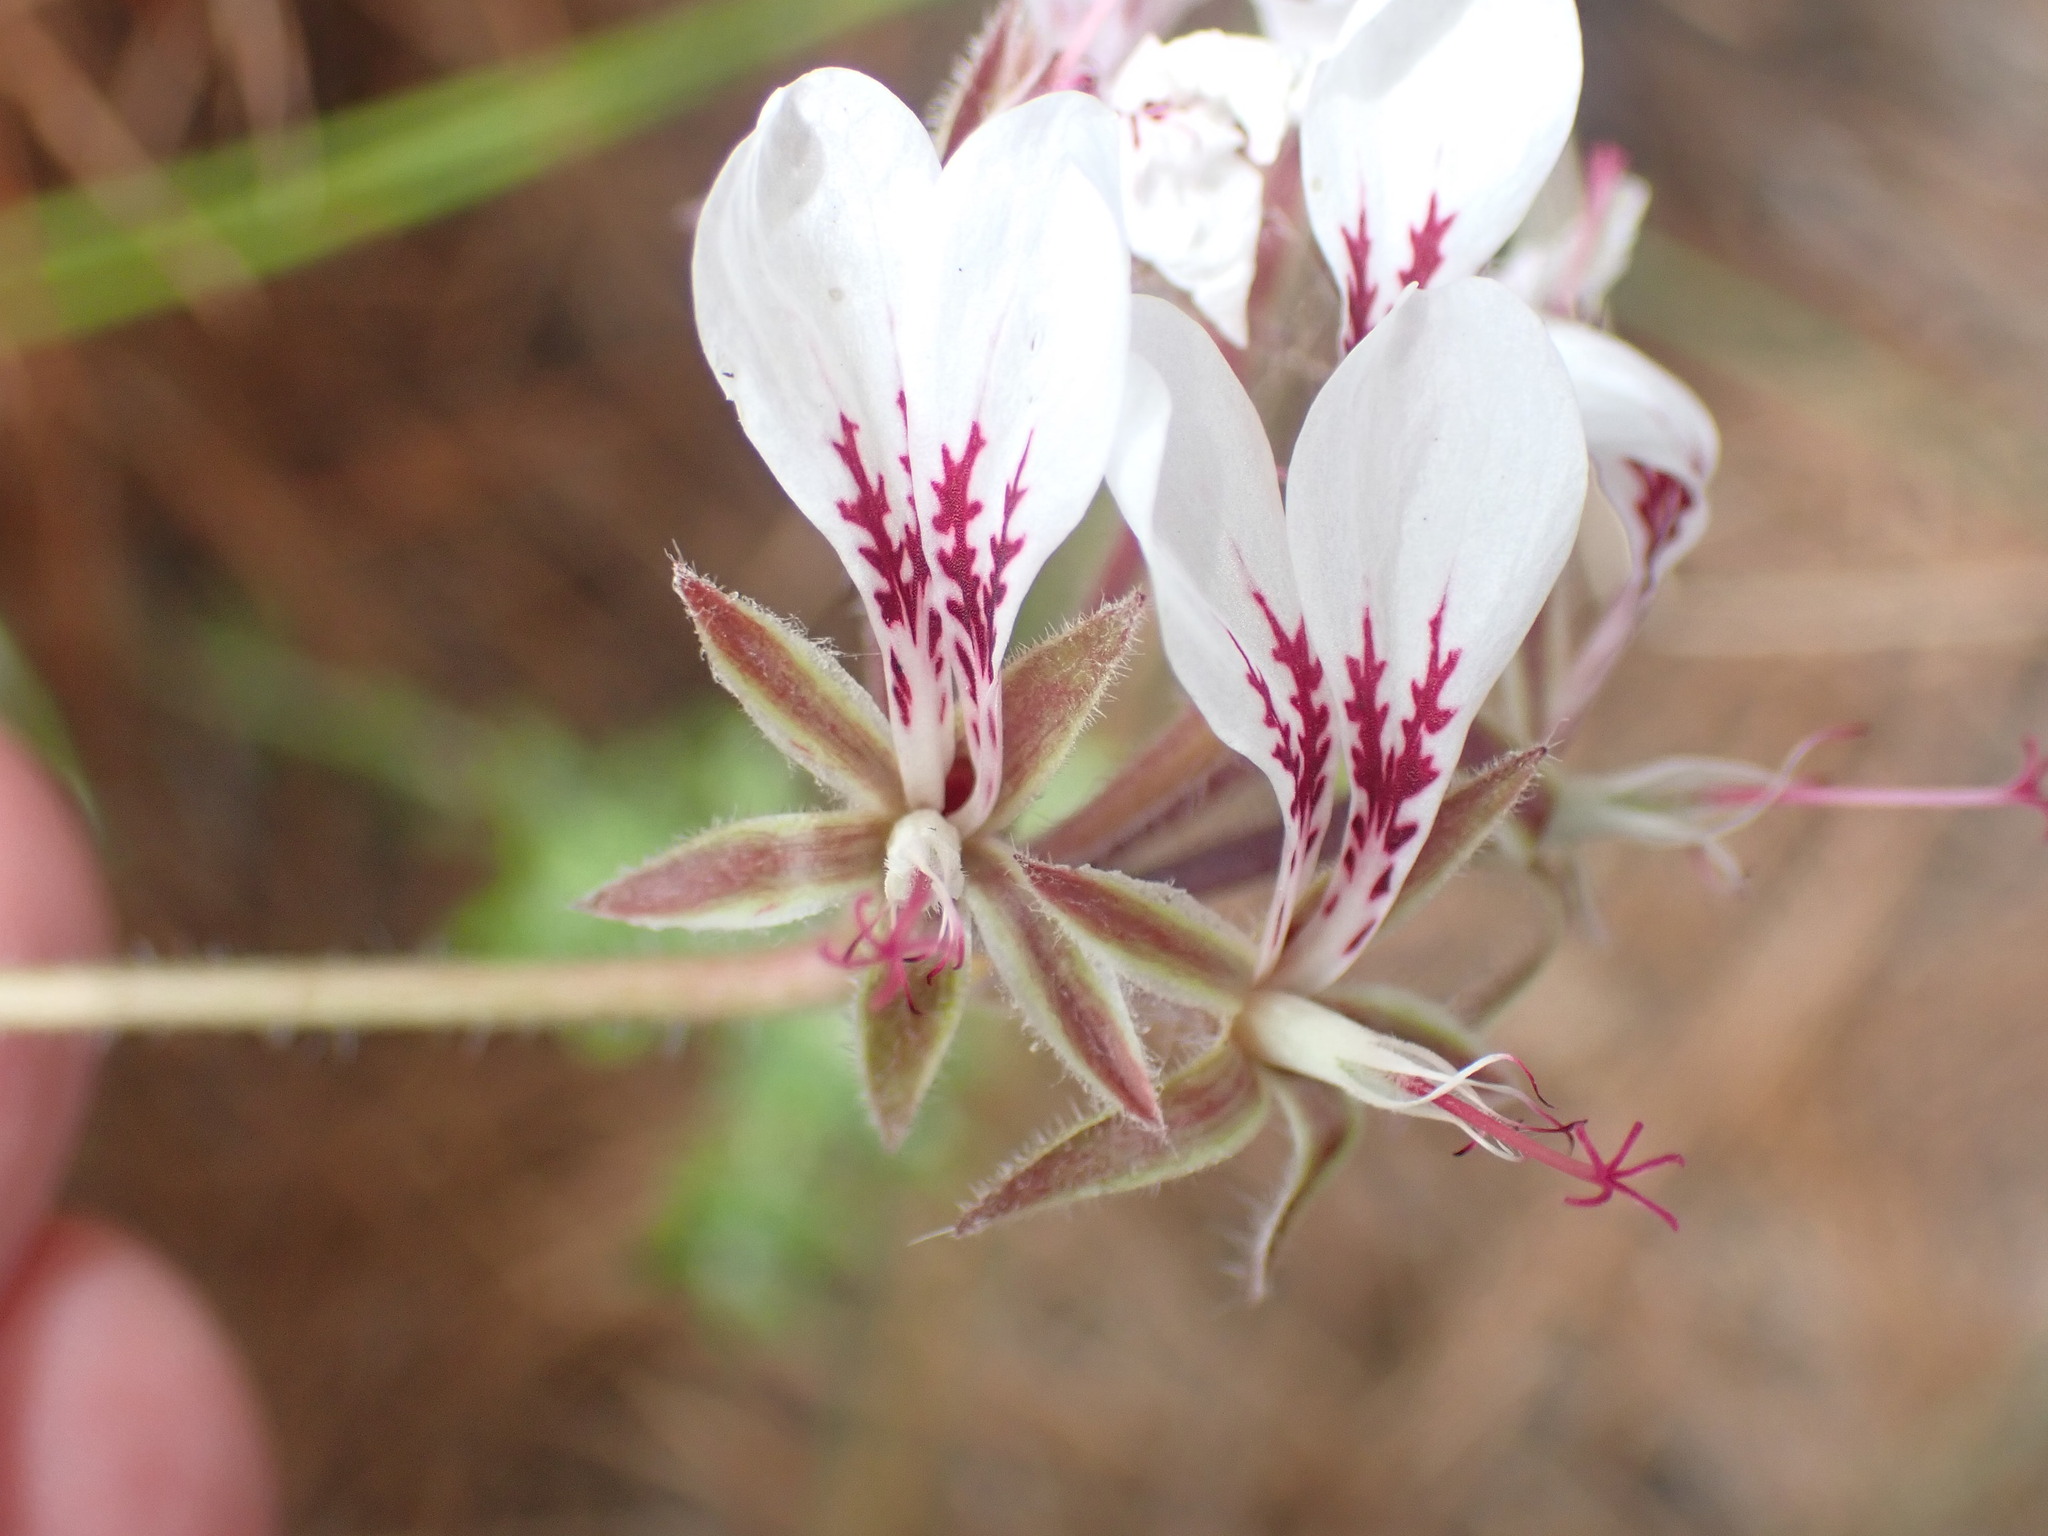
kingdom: Plantae
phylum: Tracheophyta
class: Magnoliopsida
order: Geraniales
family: Geraniaceae
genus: Pelargonium
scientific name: Pelargonium dipetalum
